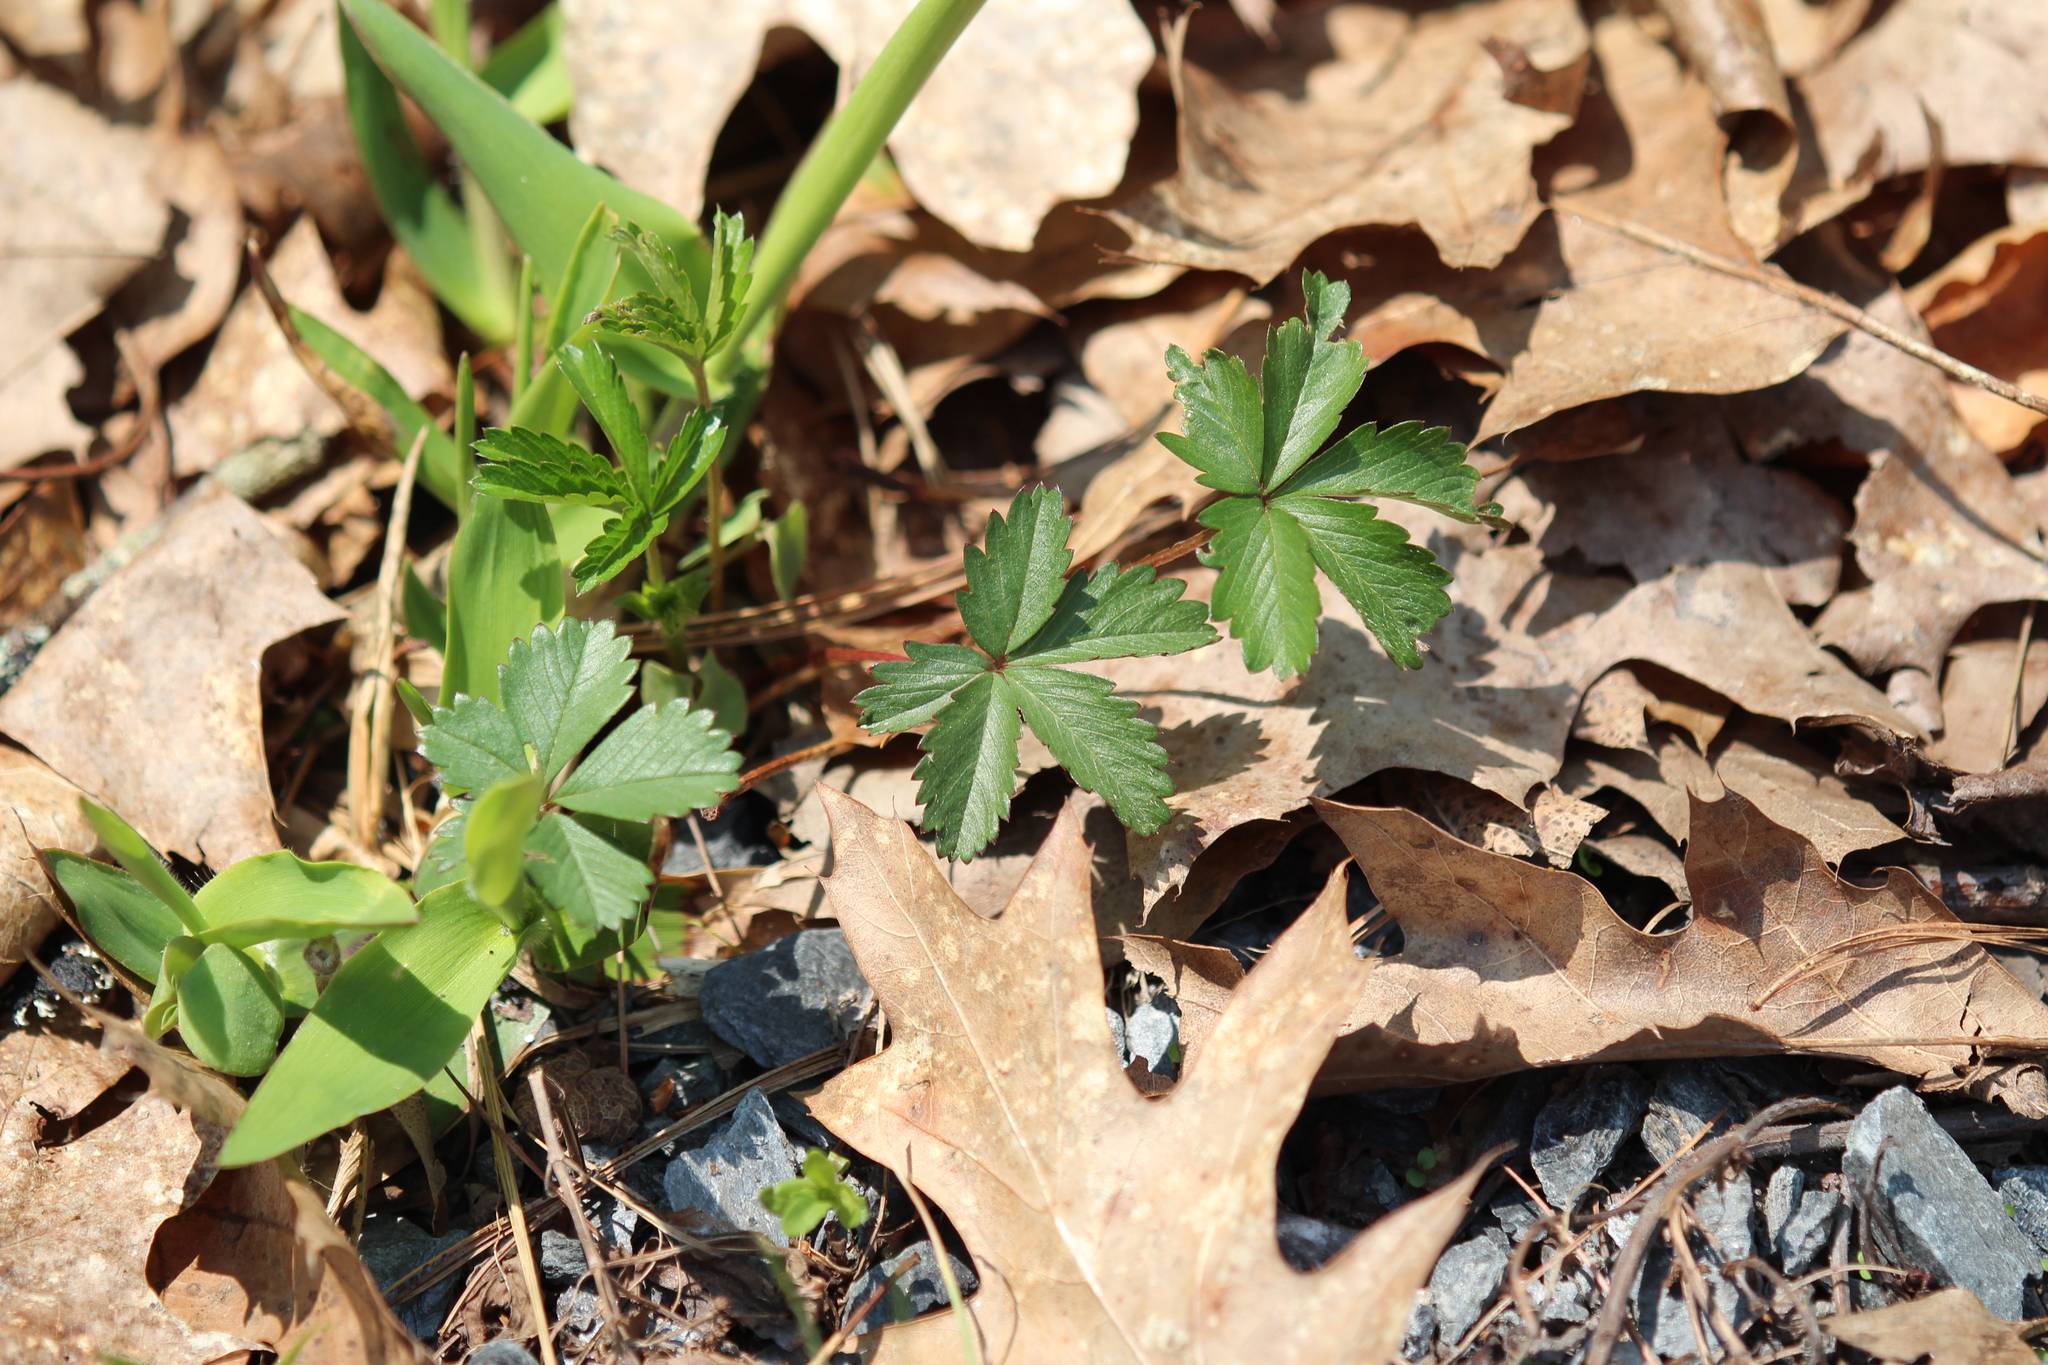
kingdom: Plantae
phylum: Tracheophyta
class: Magnoliopsida
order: Rosales
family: Rosaceae
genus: Potentilla
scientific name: Potentilla simplex
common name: Old field cinquefoil
